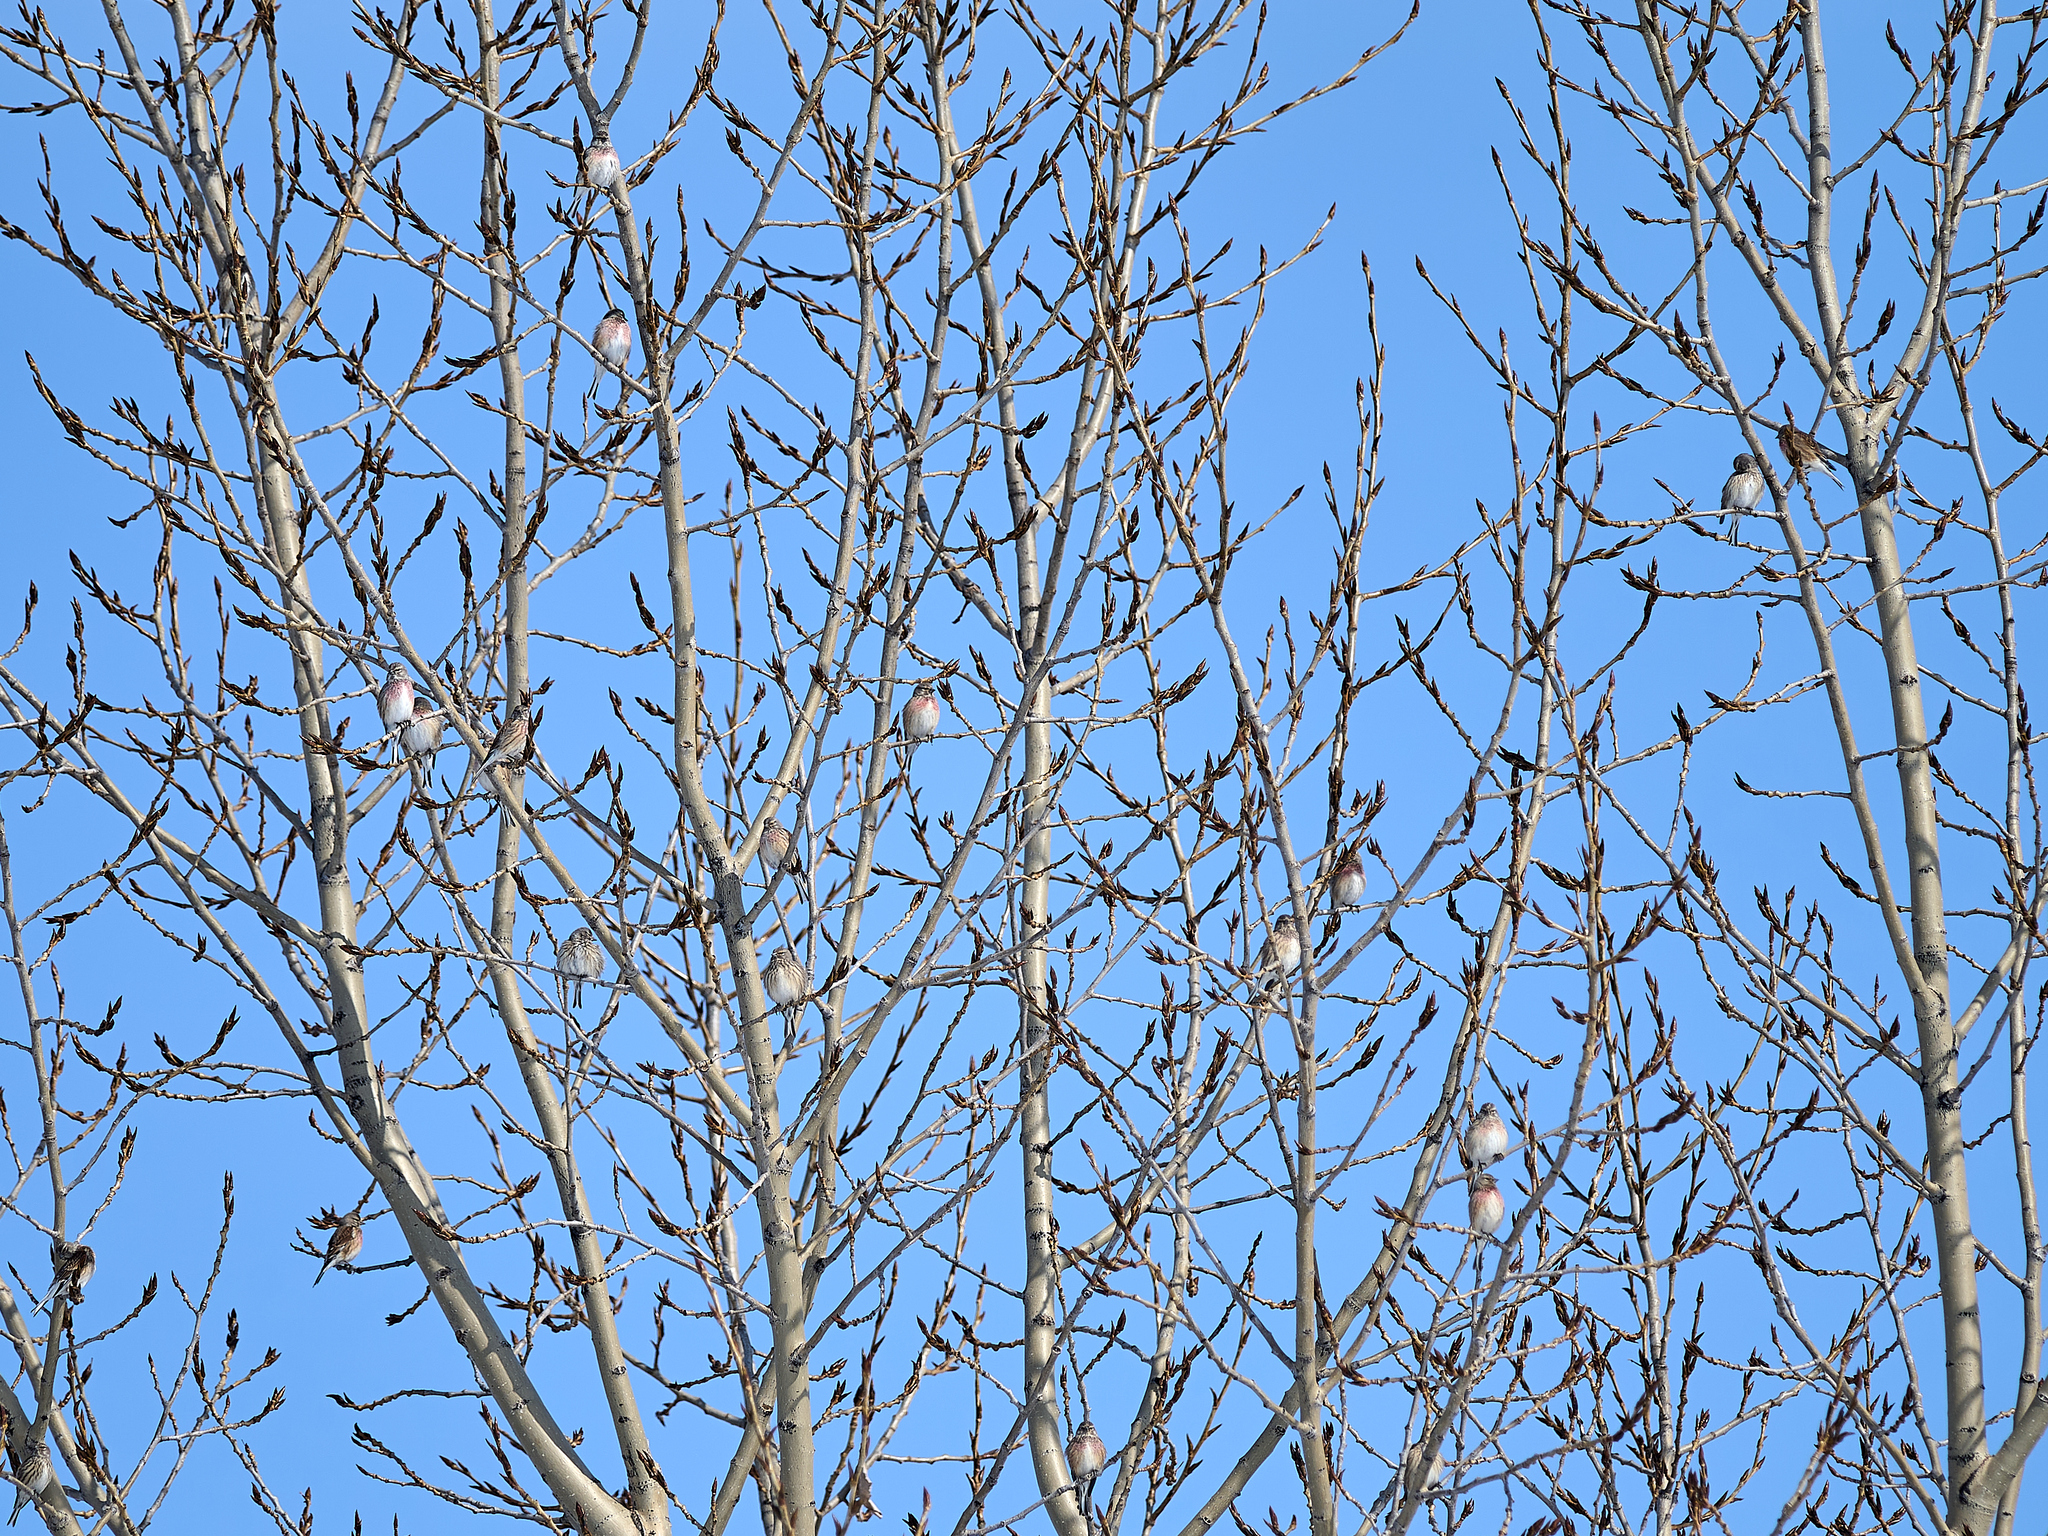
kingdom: Animalia
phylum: Chordata
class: Aves
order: Passeriformes
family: Fringillidae
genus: Linaria
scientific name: Linaria cannabina
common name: Common linnet
